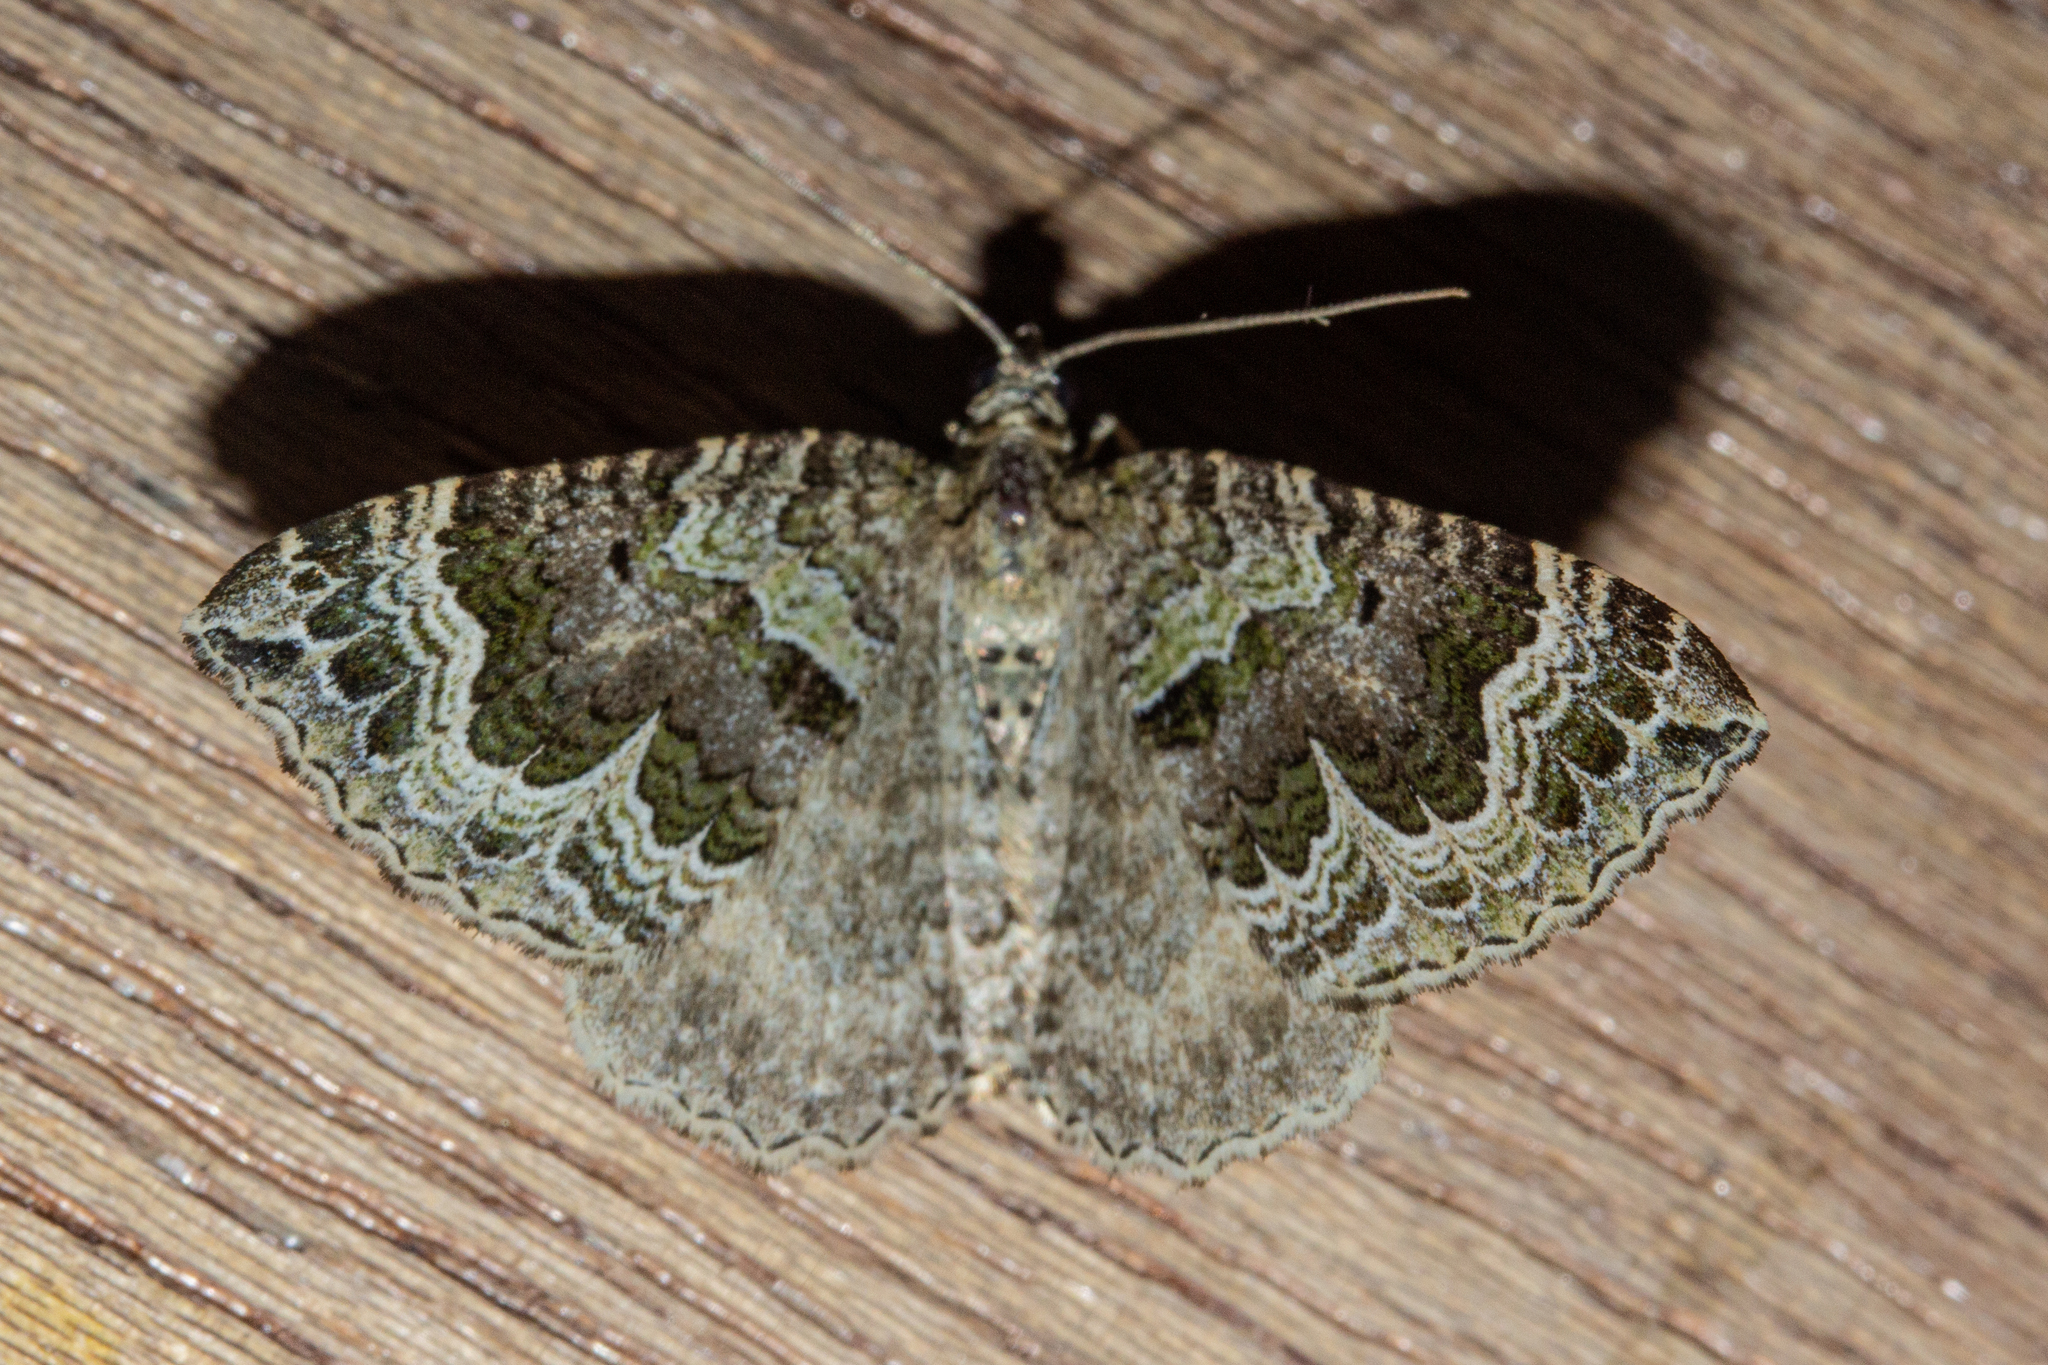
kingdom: Animalia
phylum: Arthropoda
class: Insecta
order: Lepidoptera
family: Geometridae
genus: Hydriomena
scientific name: Hydriomena rixata
